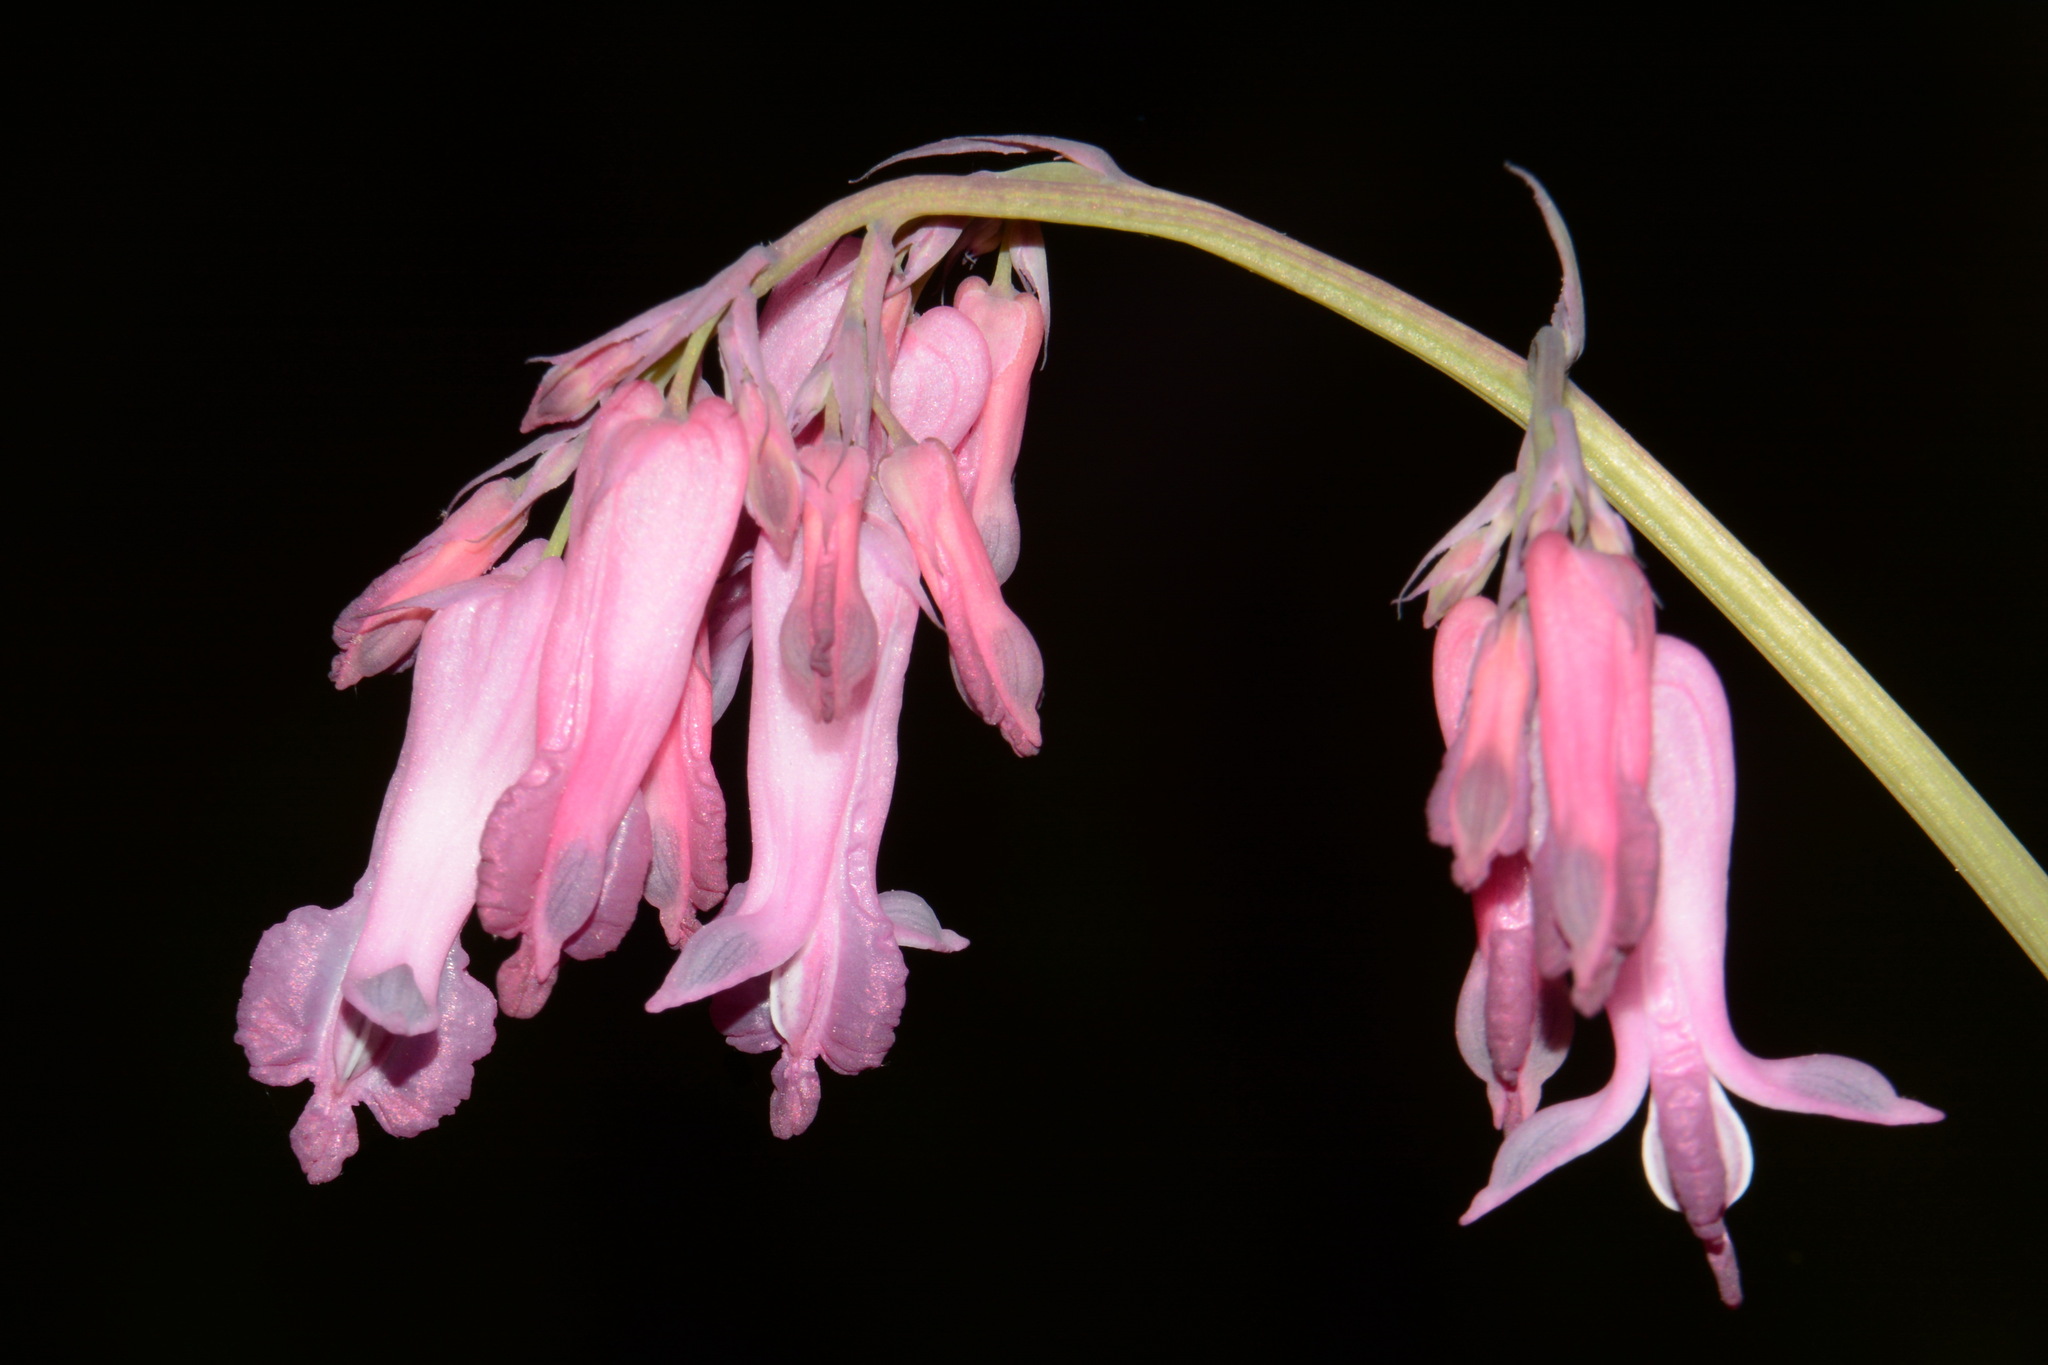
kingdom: Plantae
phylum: Tracheophyta
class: Magnoliopsida
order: Ranunculales
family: Papaveraceae
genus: Dicentra
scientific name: Dicentra eximia
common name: Turkey-corn
